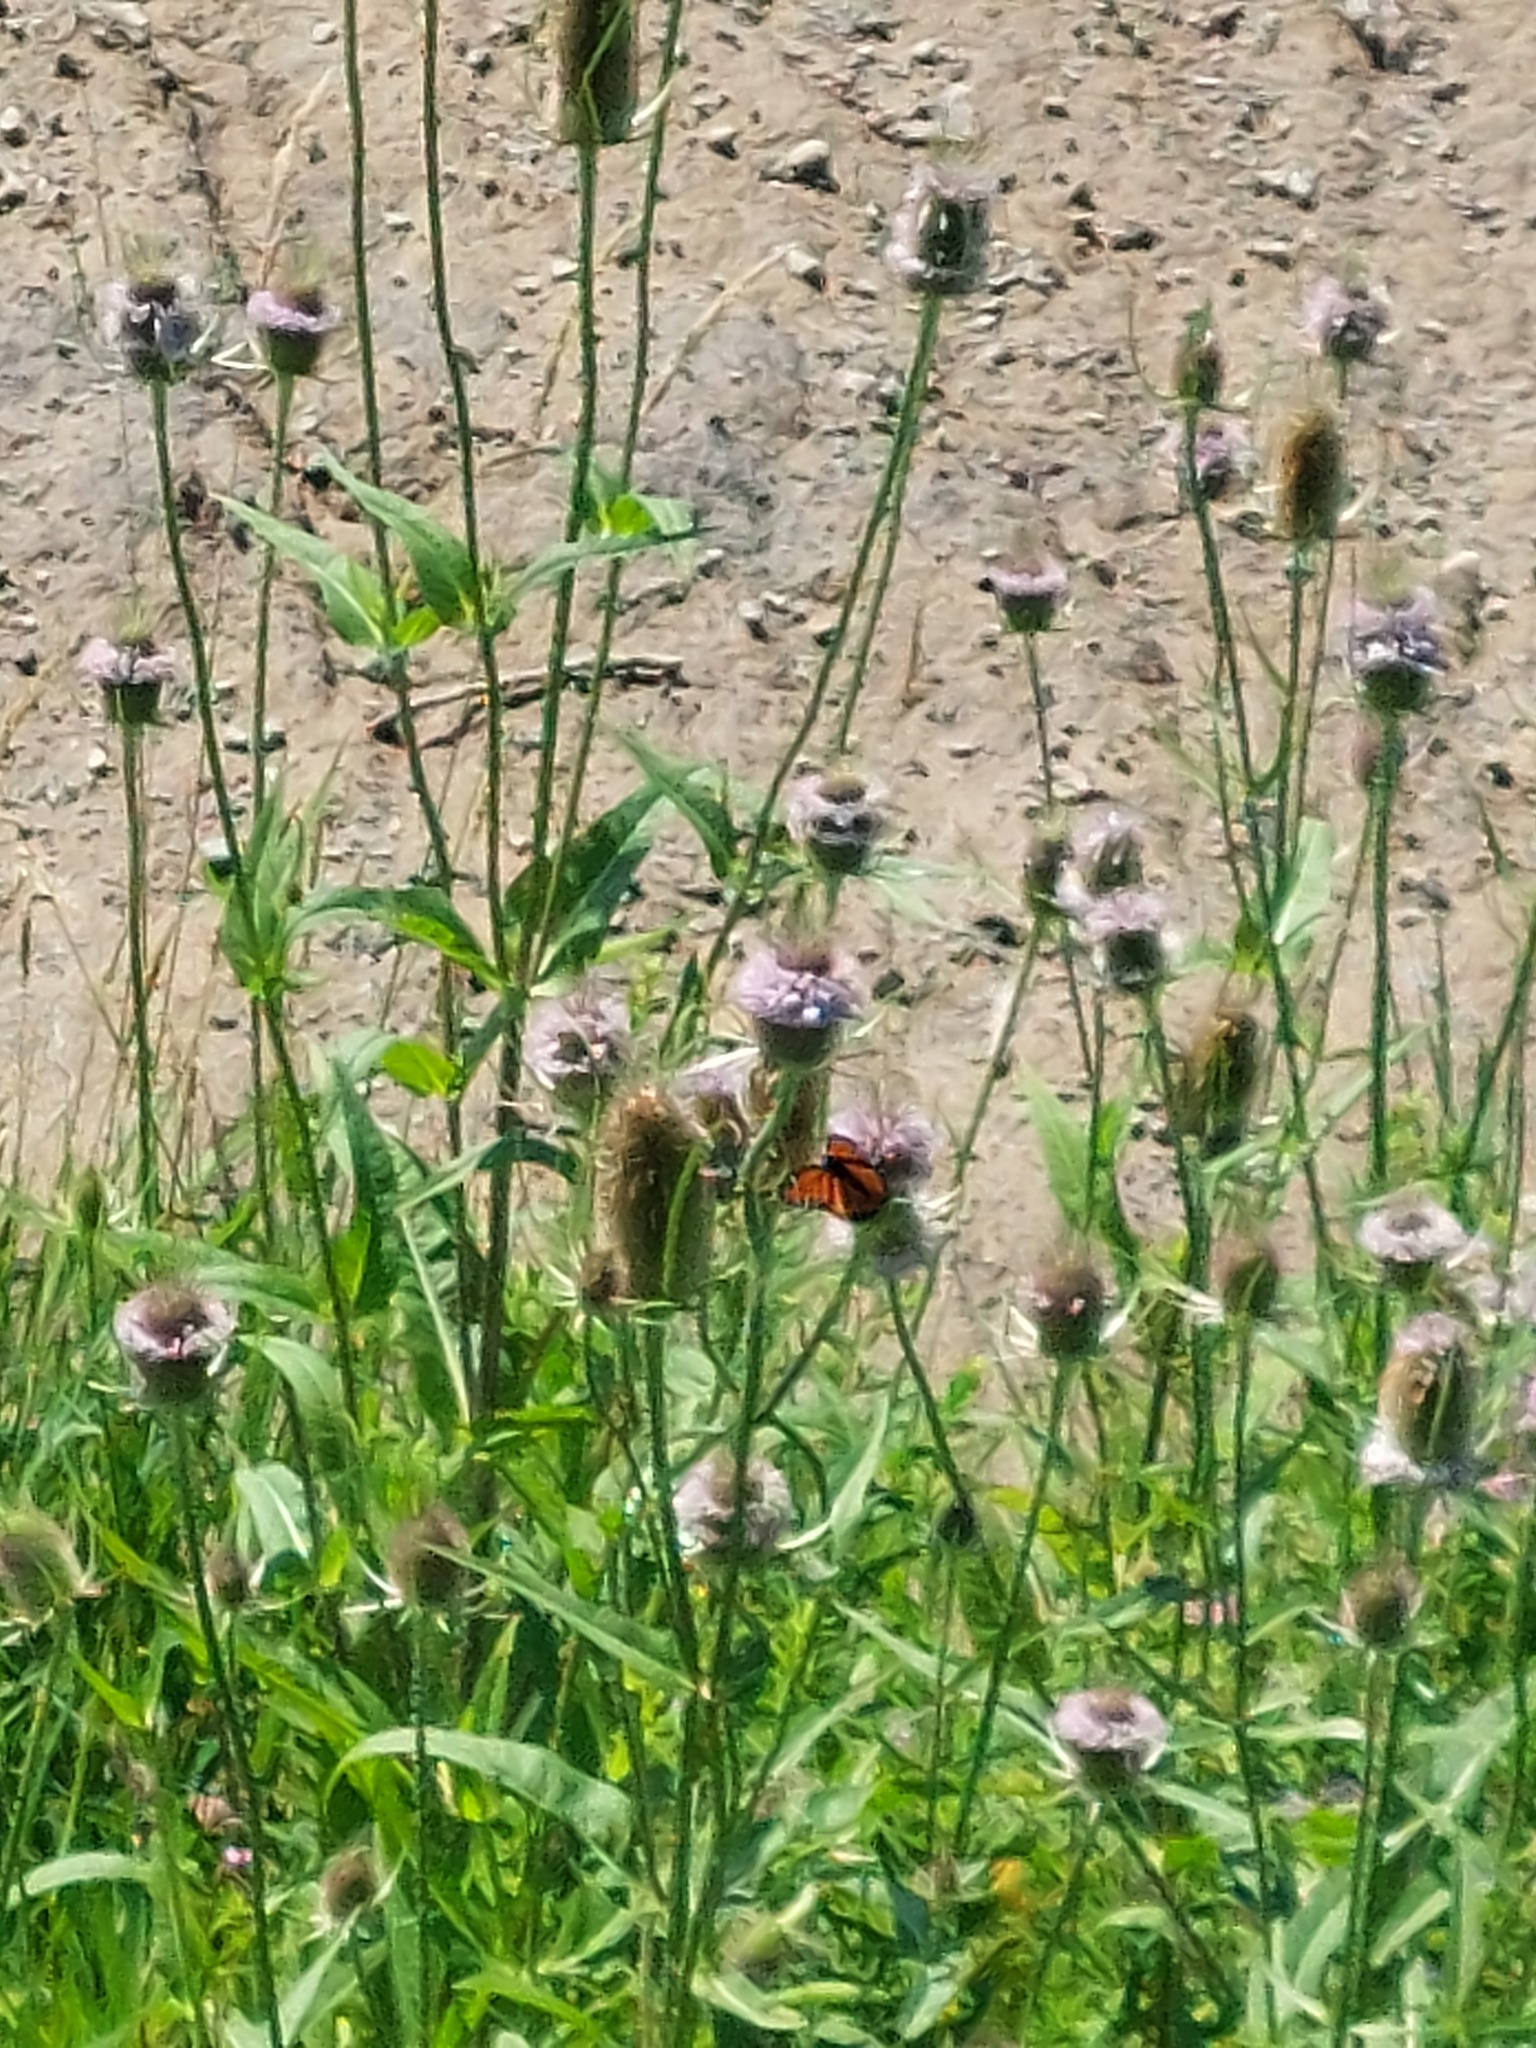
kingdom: Animalia
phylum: Arthropoda
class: Insecta
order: Lepidoptera
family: Nymphalidae
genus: Limenitis
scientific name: Limenitis archippus
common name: Viceroy
